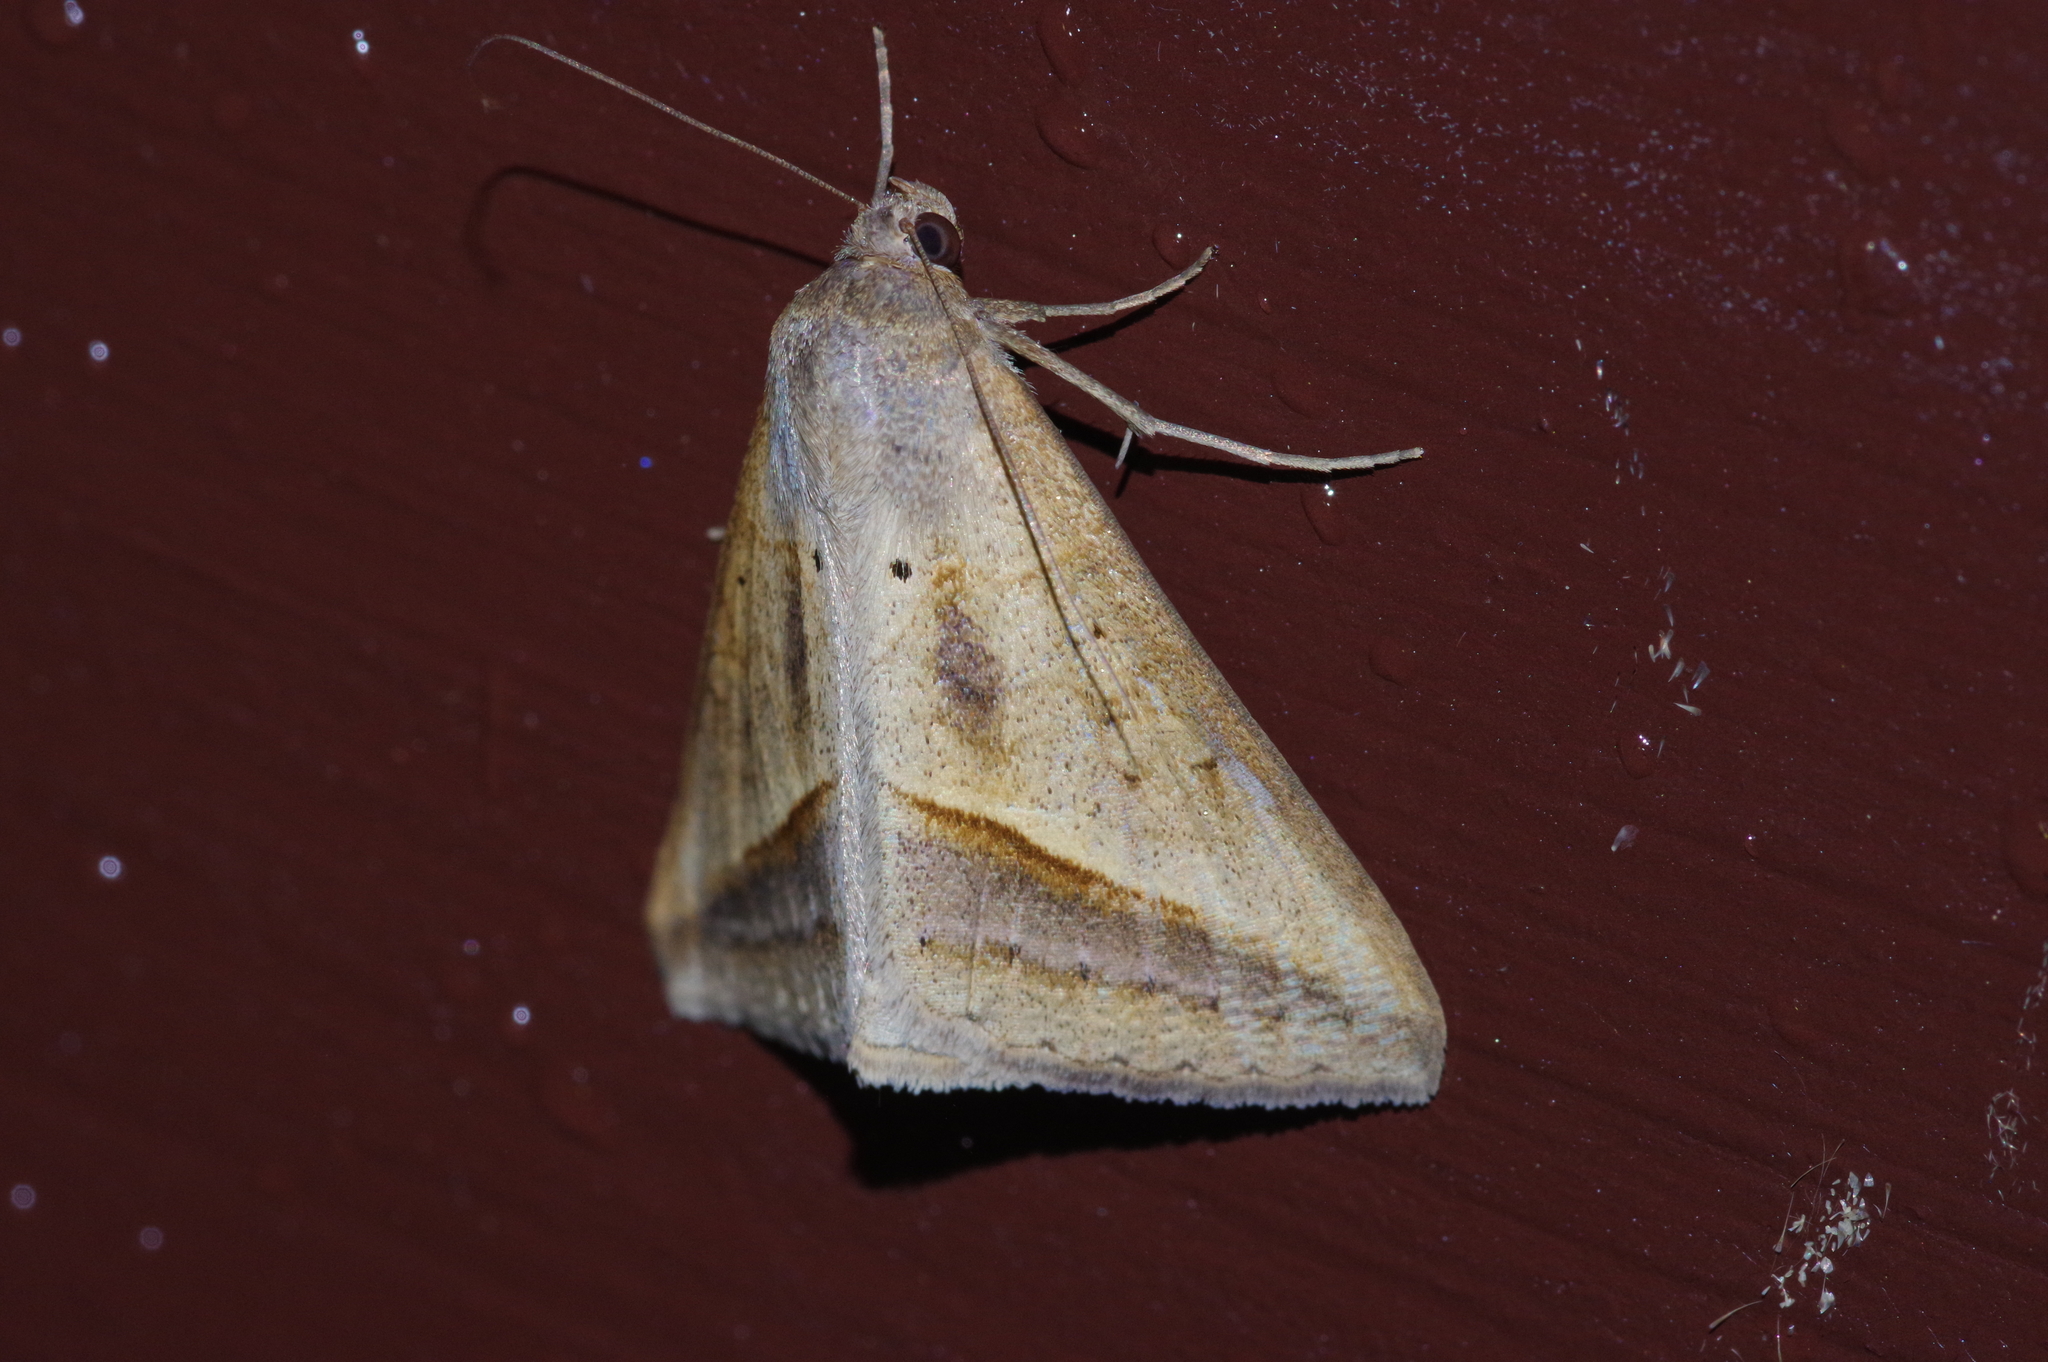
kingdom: Animalia
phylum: Arthropoda
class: Insecta
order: Lepidoptera
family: Erebidae
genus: Mocis
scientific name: Mocis frugalis
